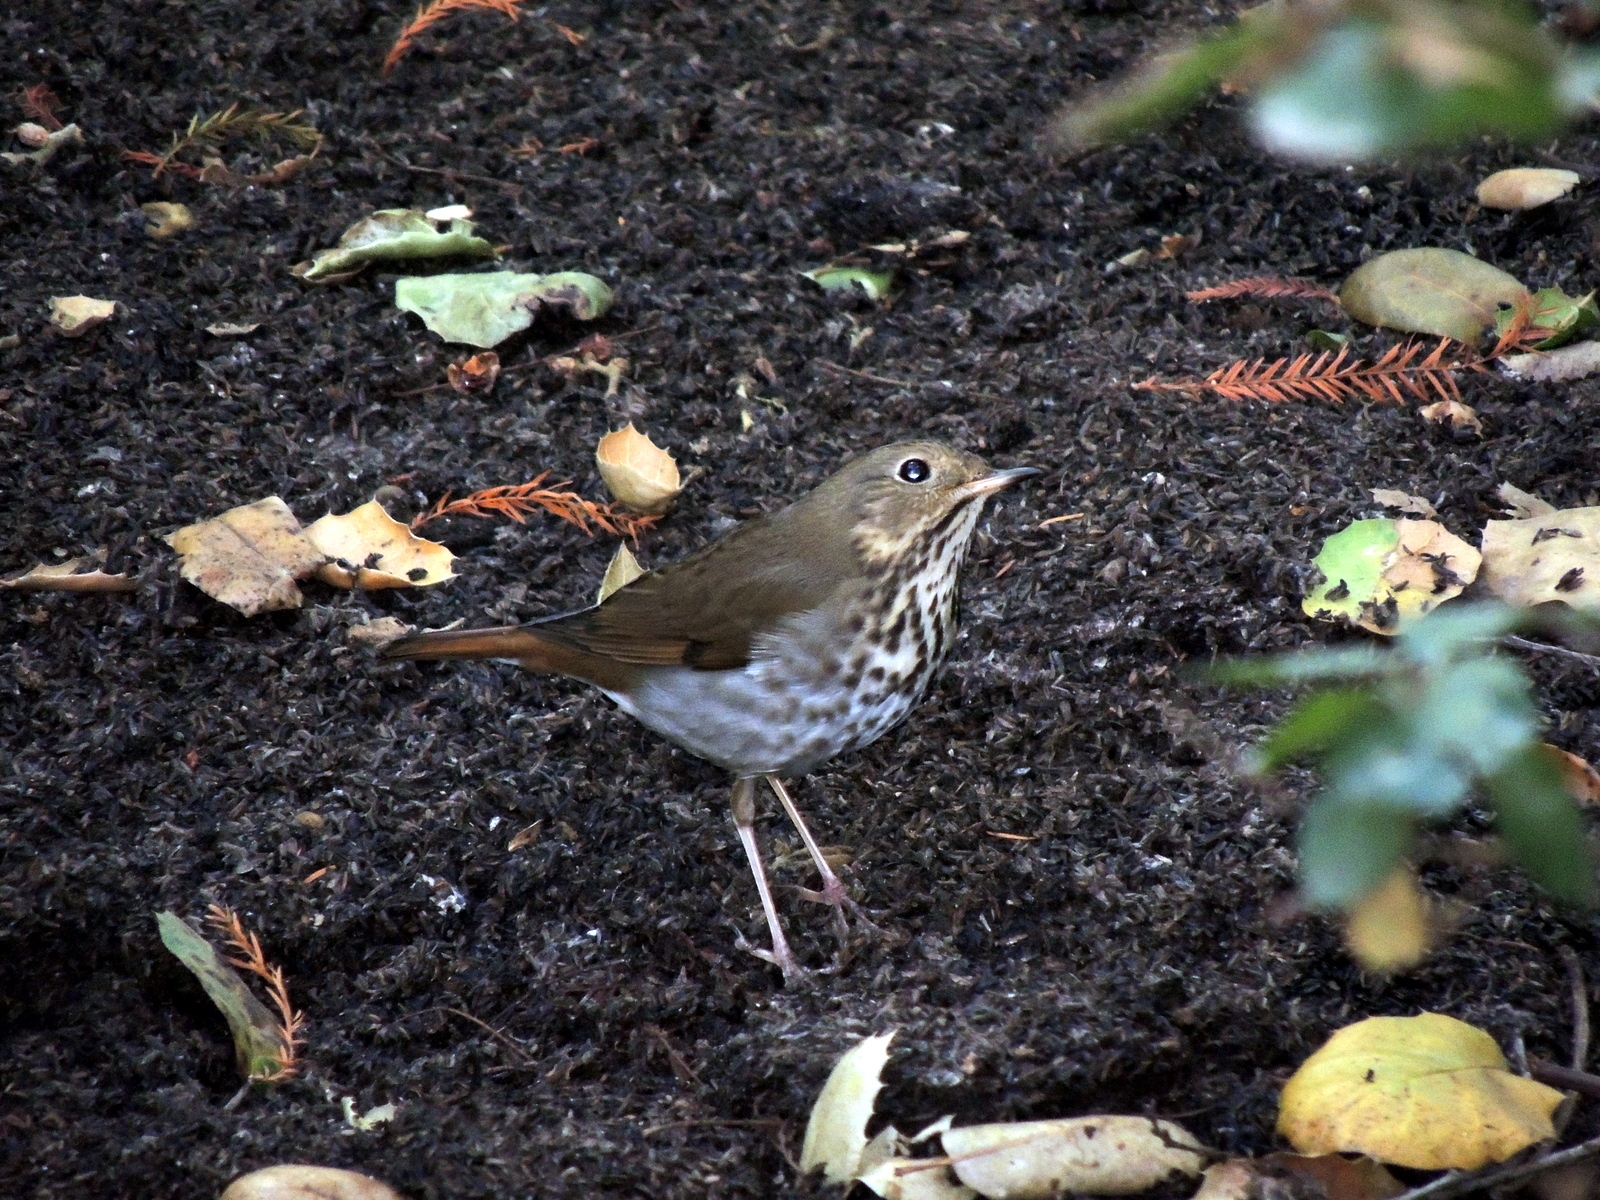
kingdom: Animalia
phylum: Chordata
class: Aves
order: Passeriformes
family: Turdidae
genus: Catharus
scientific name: Catharus guttatus
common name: Hermit thrush
